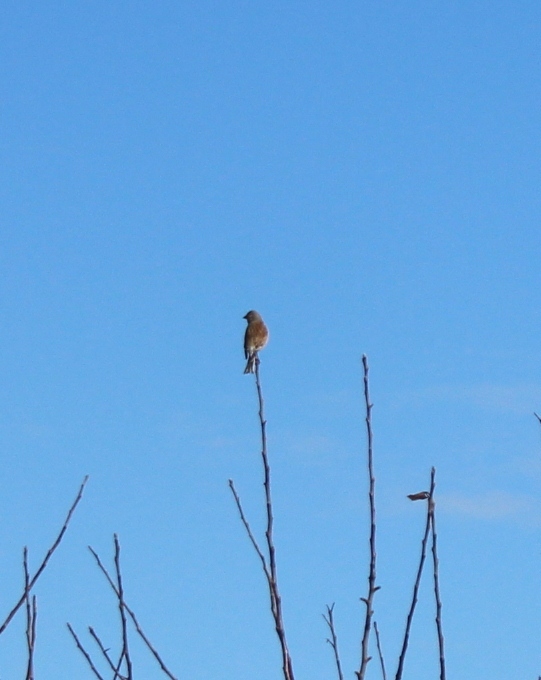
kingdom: Animalia
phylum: Chordata
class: Aves
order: Passeriformes
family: Fringillidae
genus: Linaria
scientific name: Linaria cannabina
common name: Common linnet
